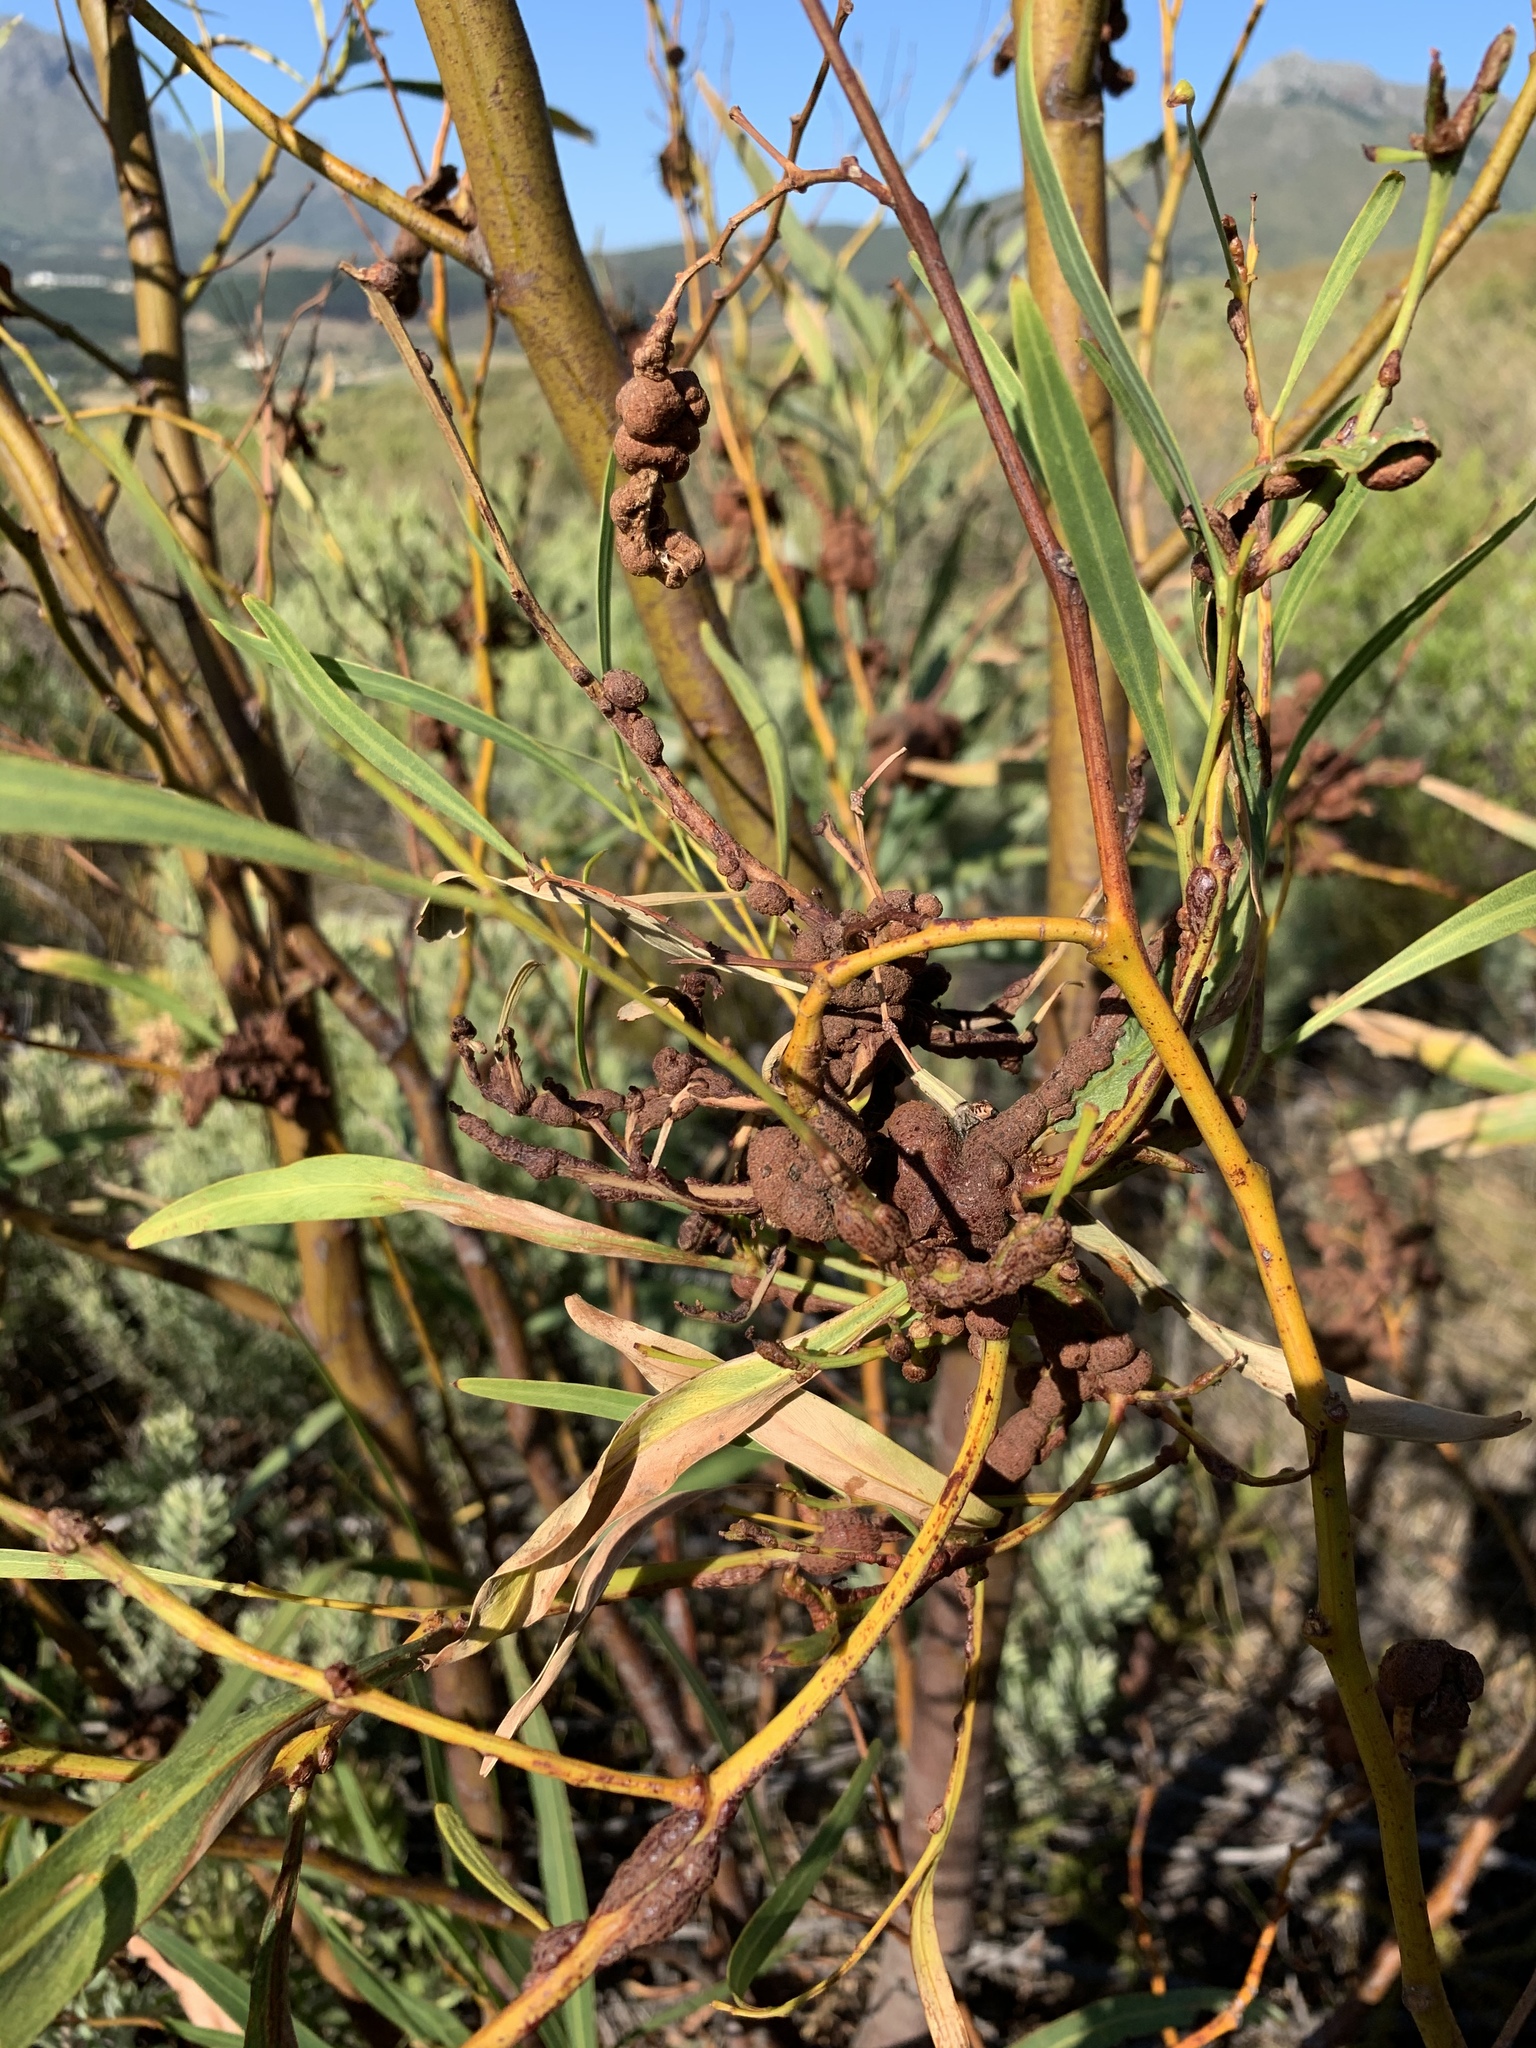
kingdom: Fungi
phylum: Basidiomycota
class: Pucciniomycetes
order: Pucciniales
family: Uromycladiaceae
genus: Uromycladium
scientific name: Uromycladium morrisii
